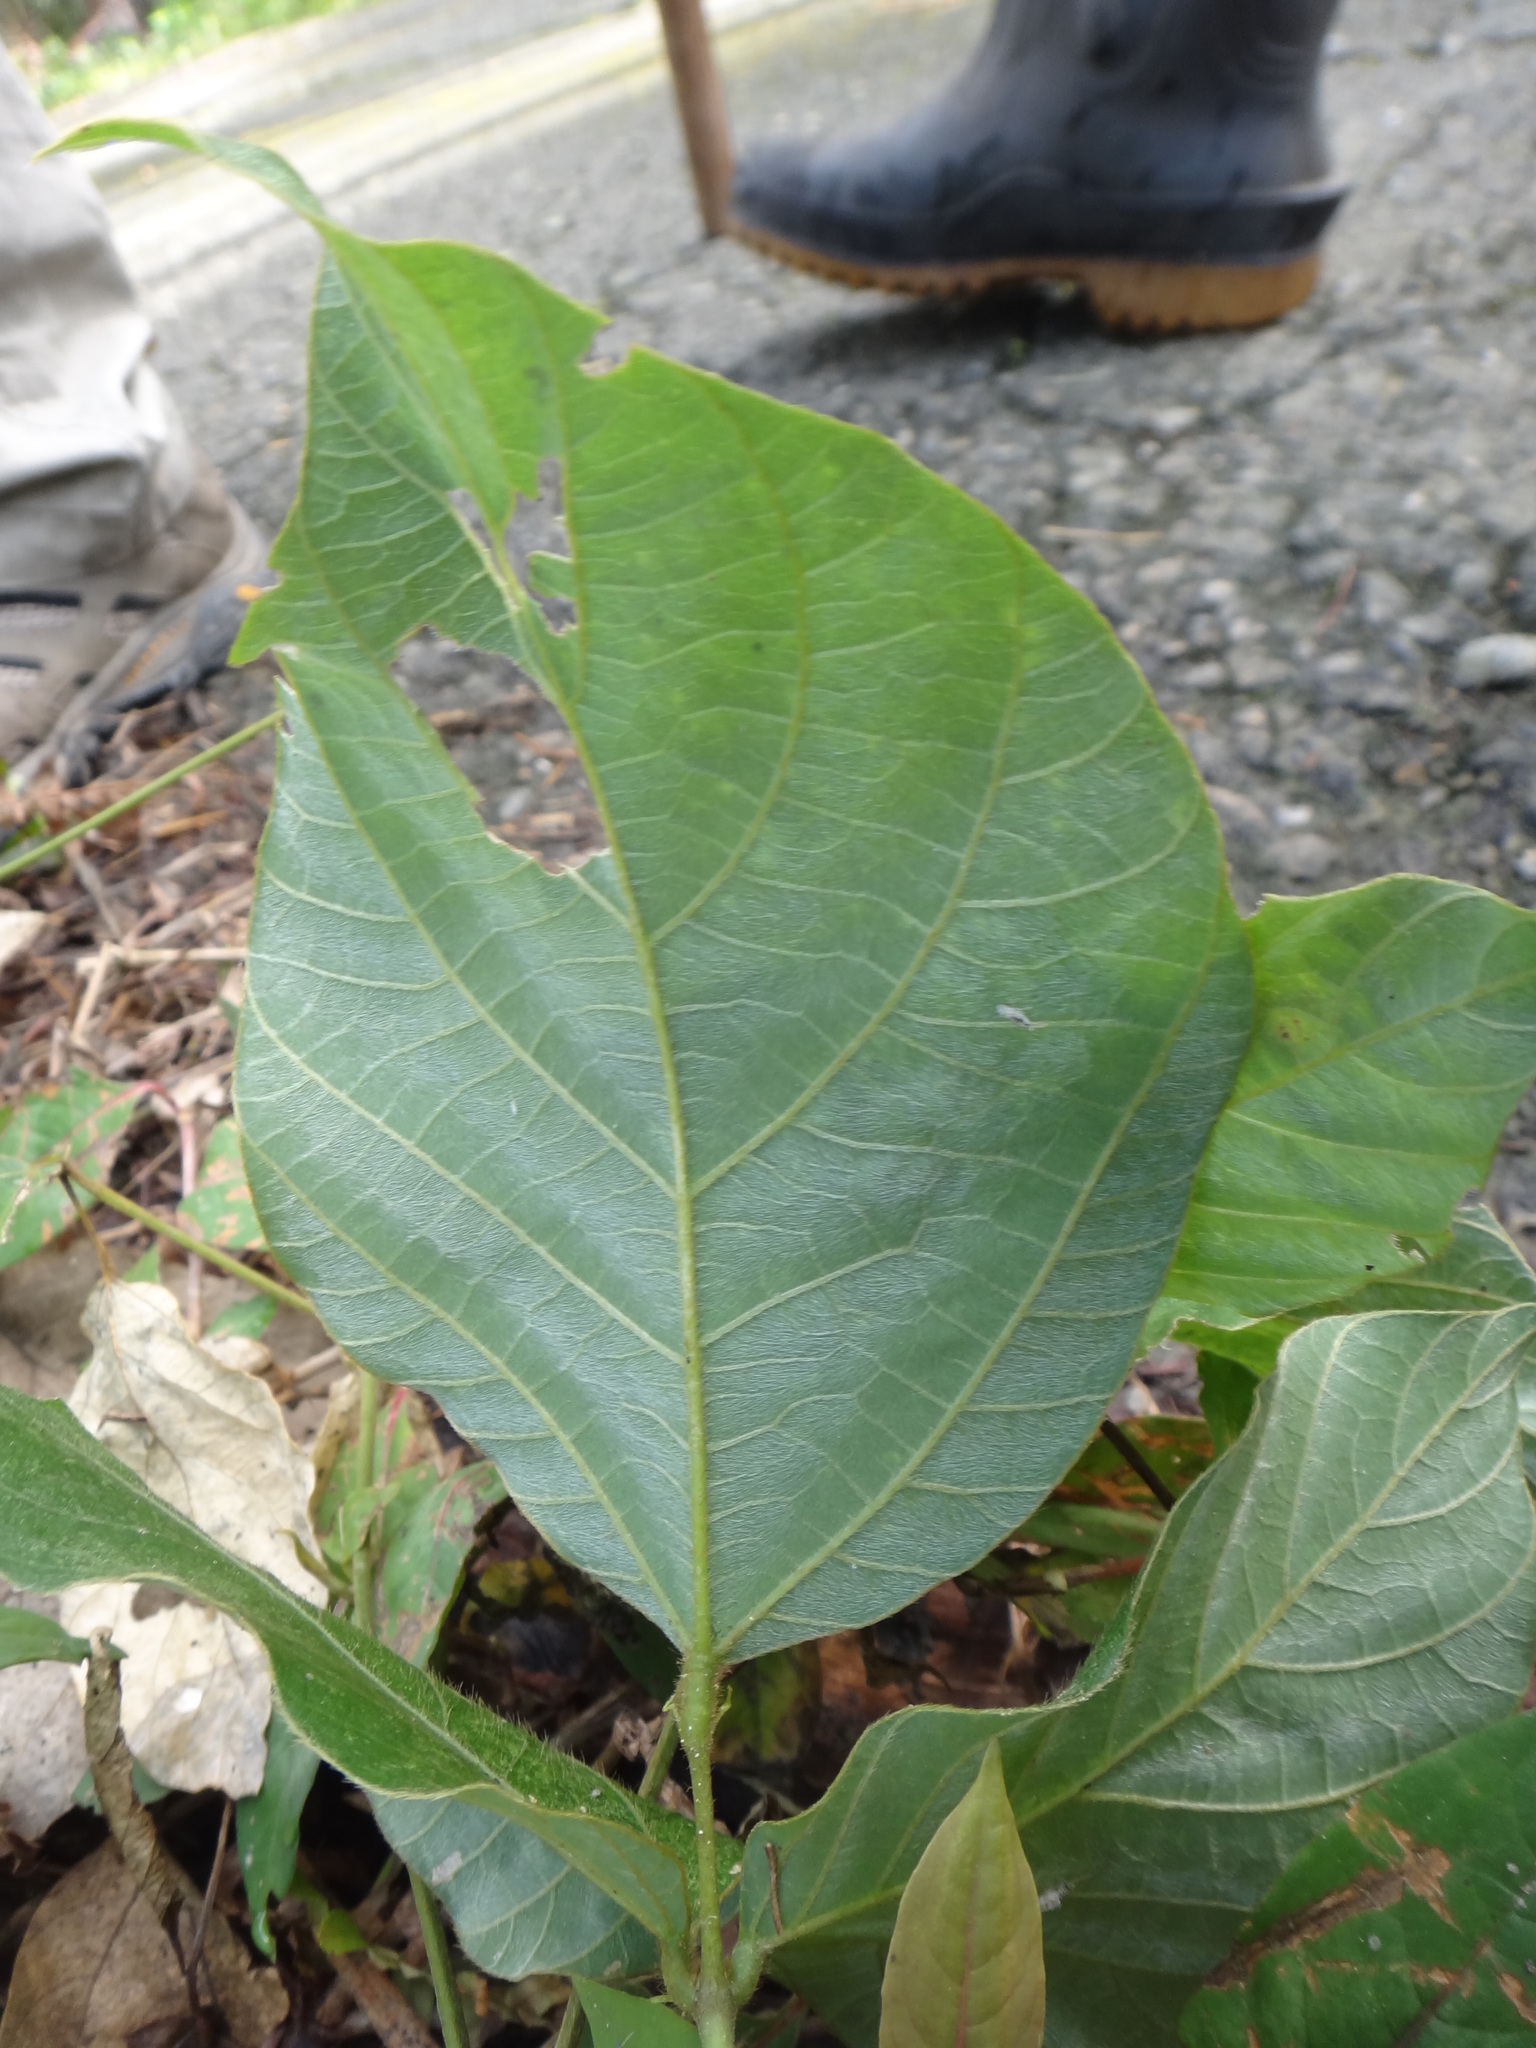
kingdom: Plantae
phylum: Tracheophyta
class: Magnoliopsida
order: Fabales
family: Fabaceae
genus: Pueraria
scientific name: Pueraria montana
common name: Kudzu
